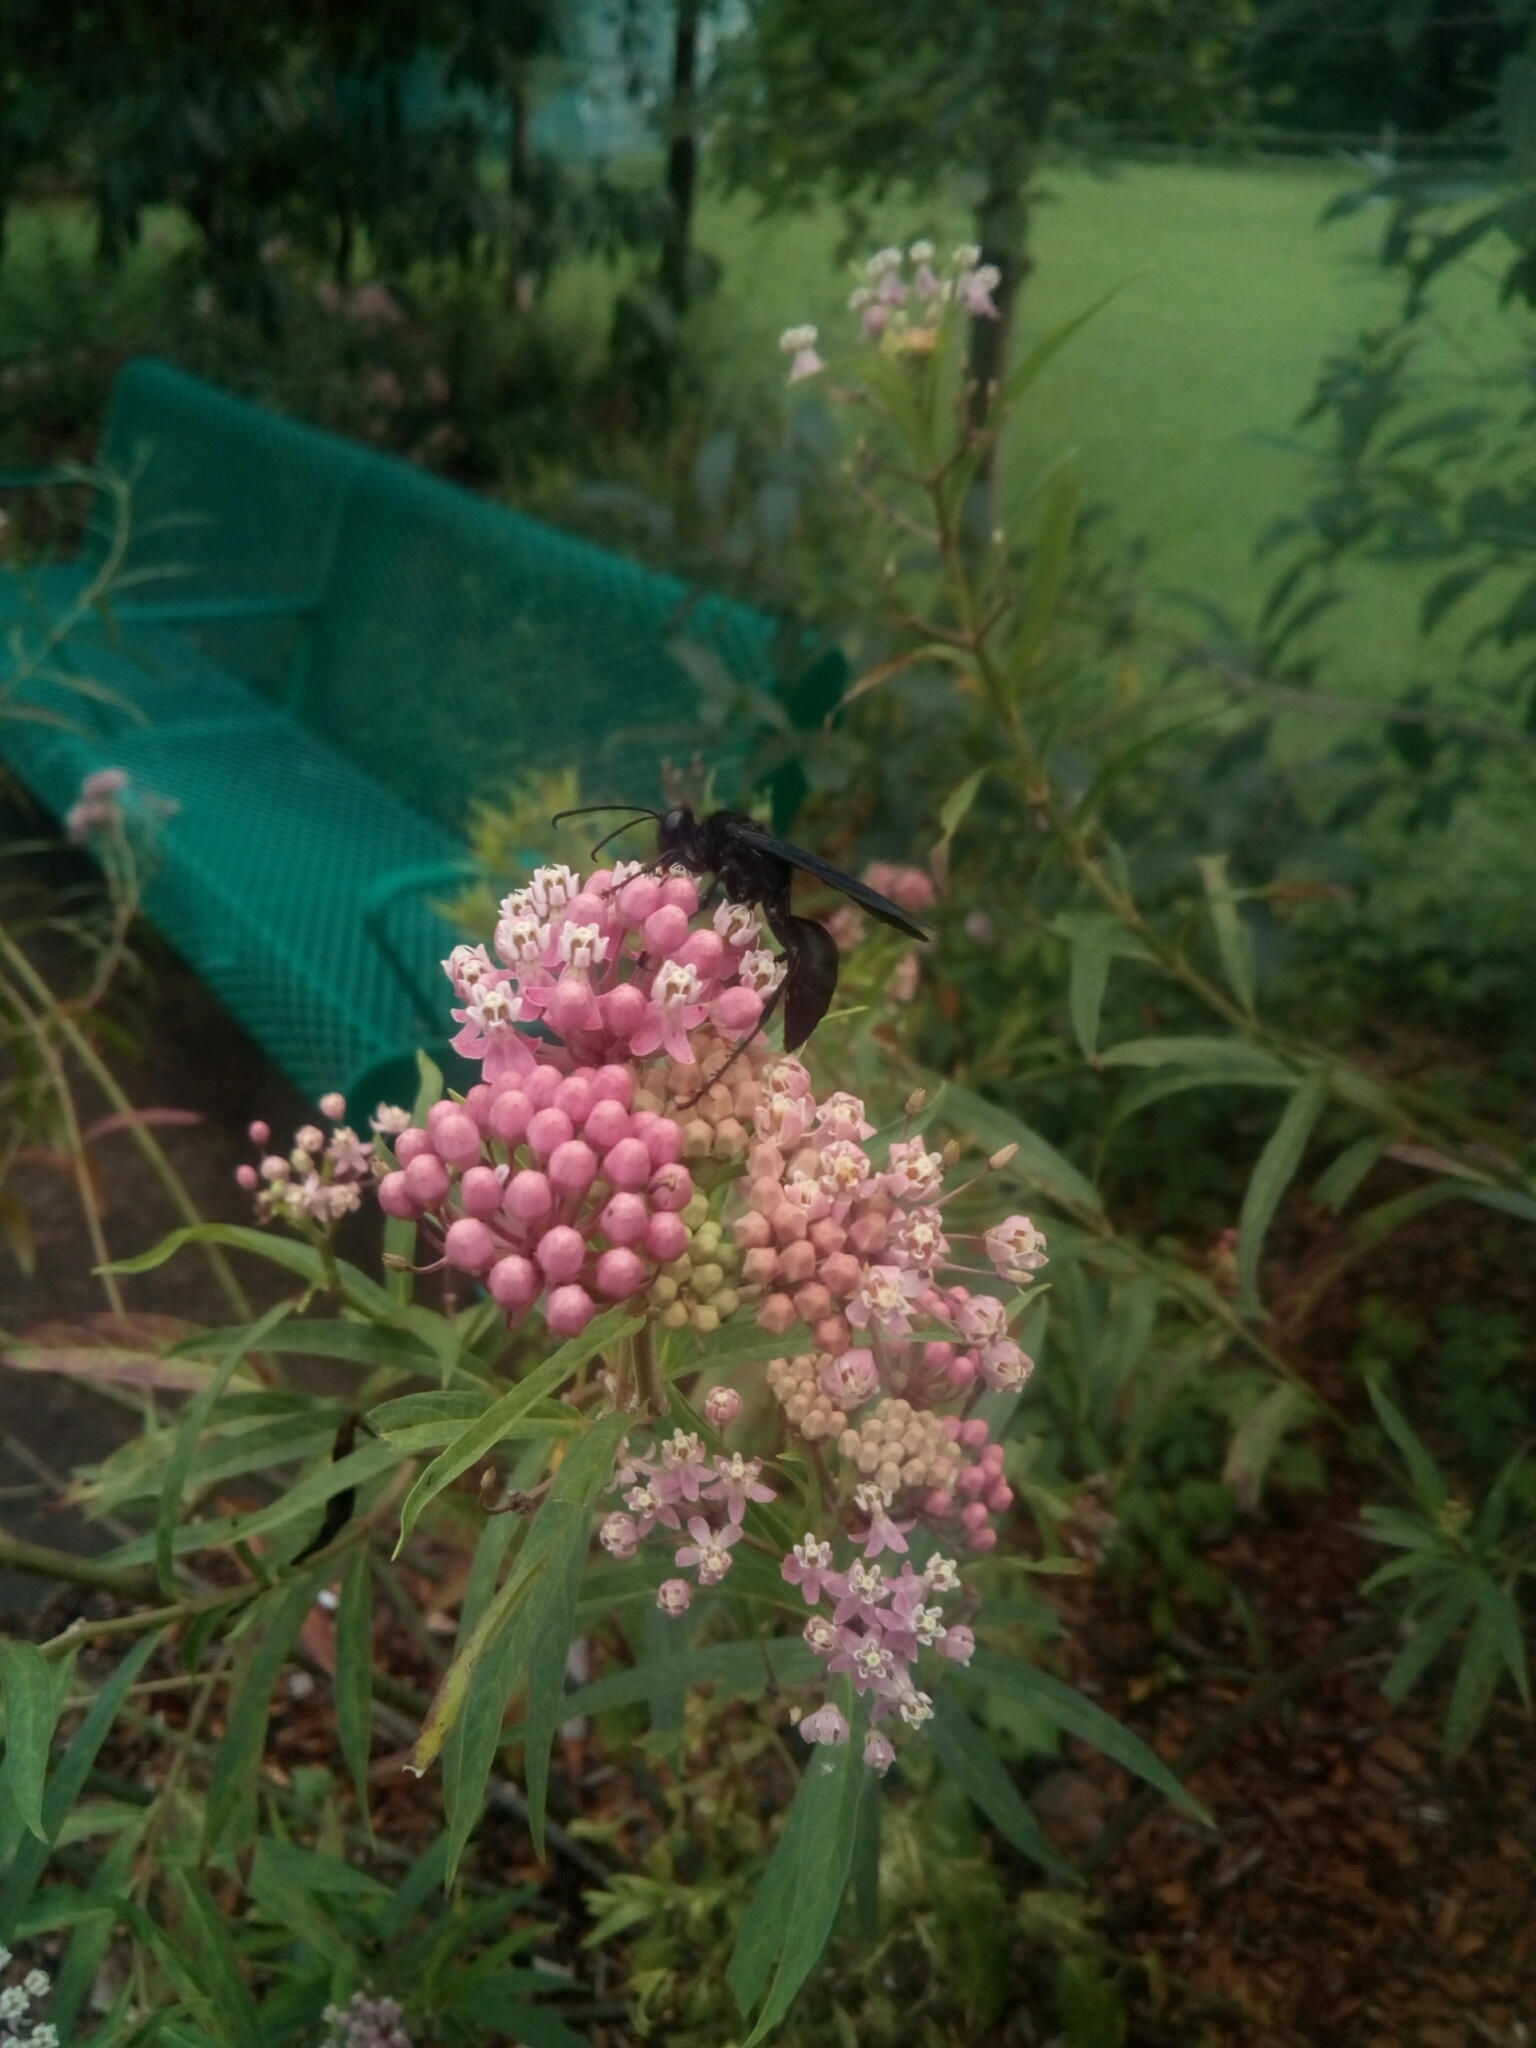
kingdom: Animalia
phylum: Arthropoda
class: Insecta
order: Hymenoptera
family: Sphecidae
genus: Sphex
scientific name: Sphex pensylvanicus
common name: Great black digger wasp
